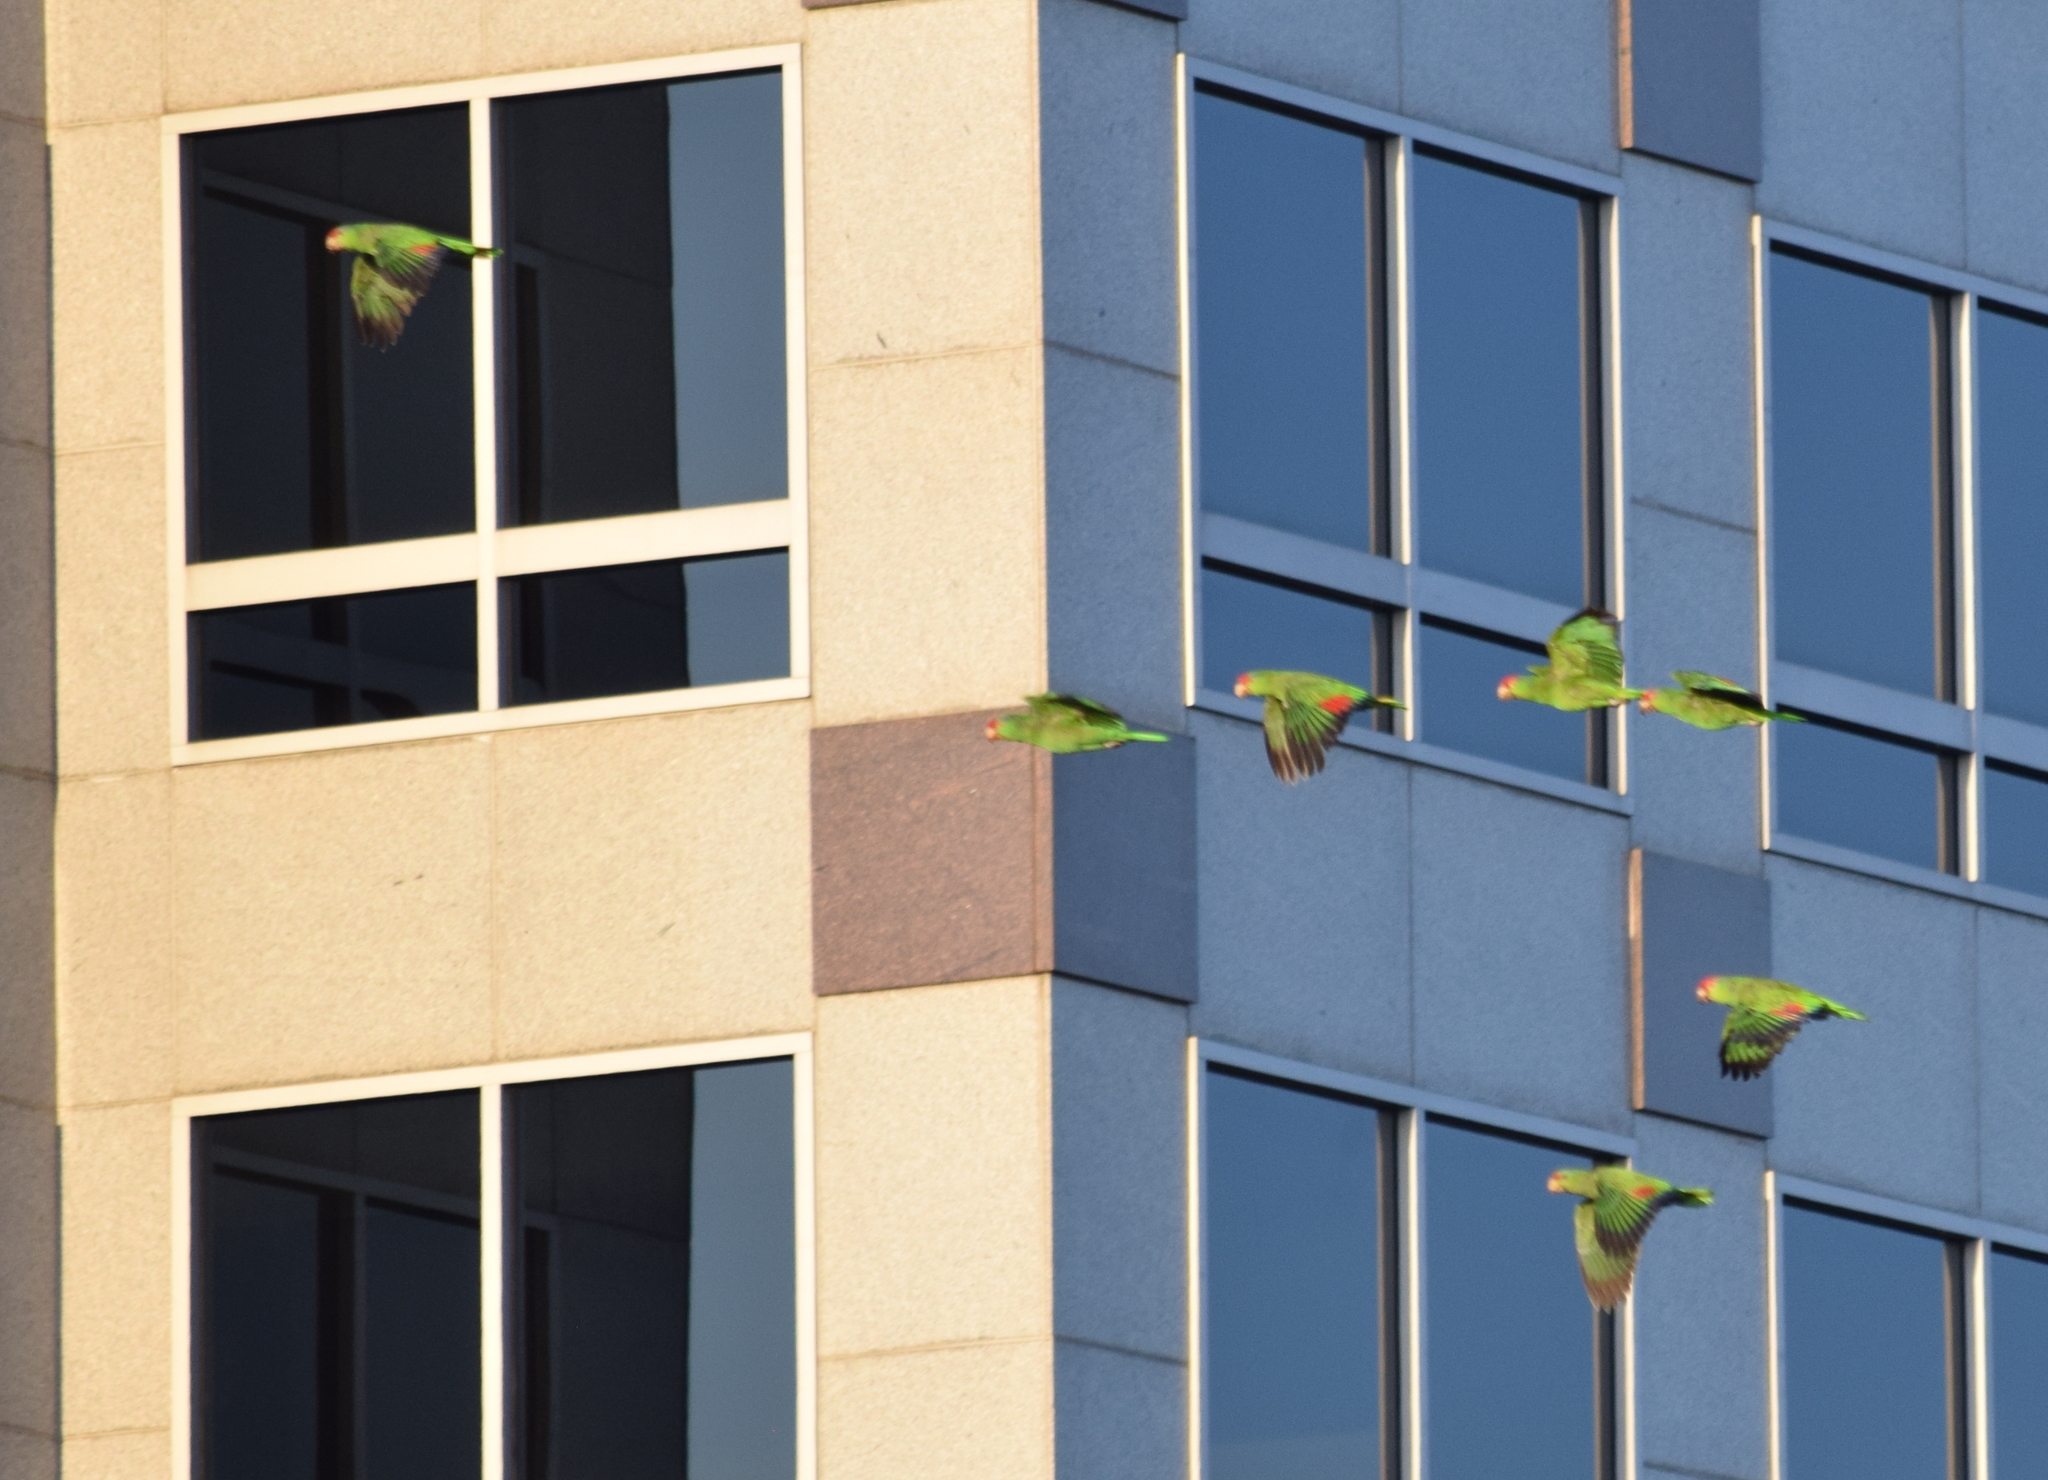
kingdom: Animalia
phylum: Chordata
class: Aves
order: Psittaciformes
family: Psittacidae
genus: Amazona
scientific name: Amazona viridigenalis
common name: Red-crowned amazon
